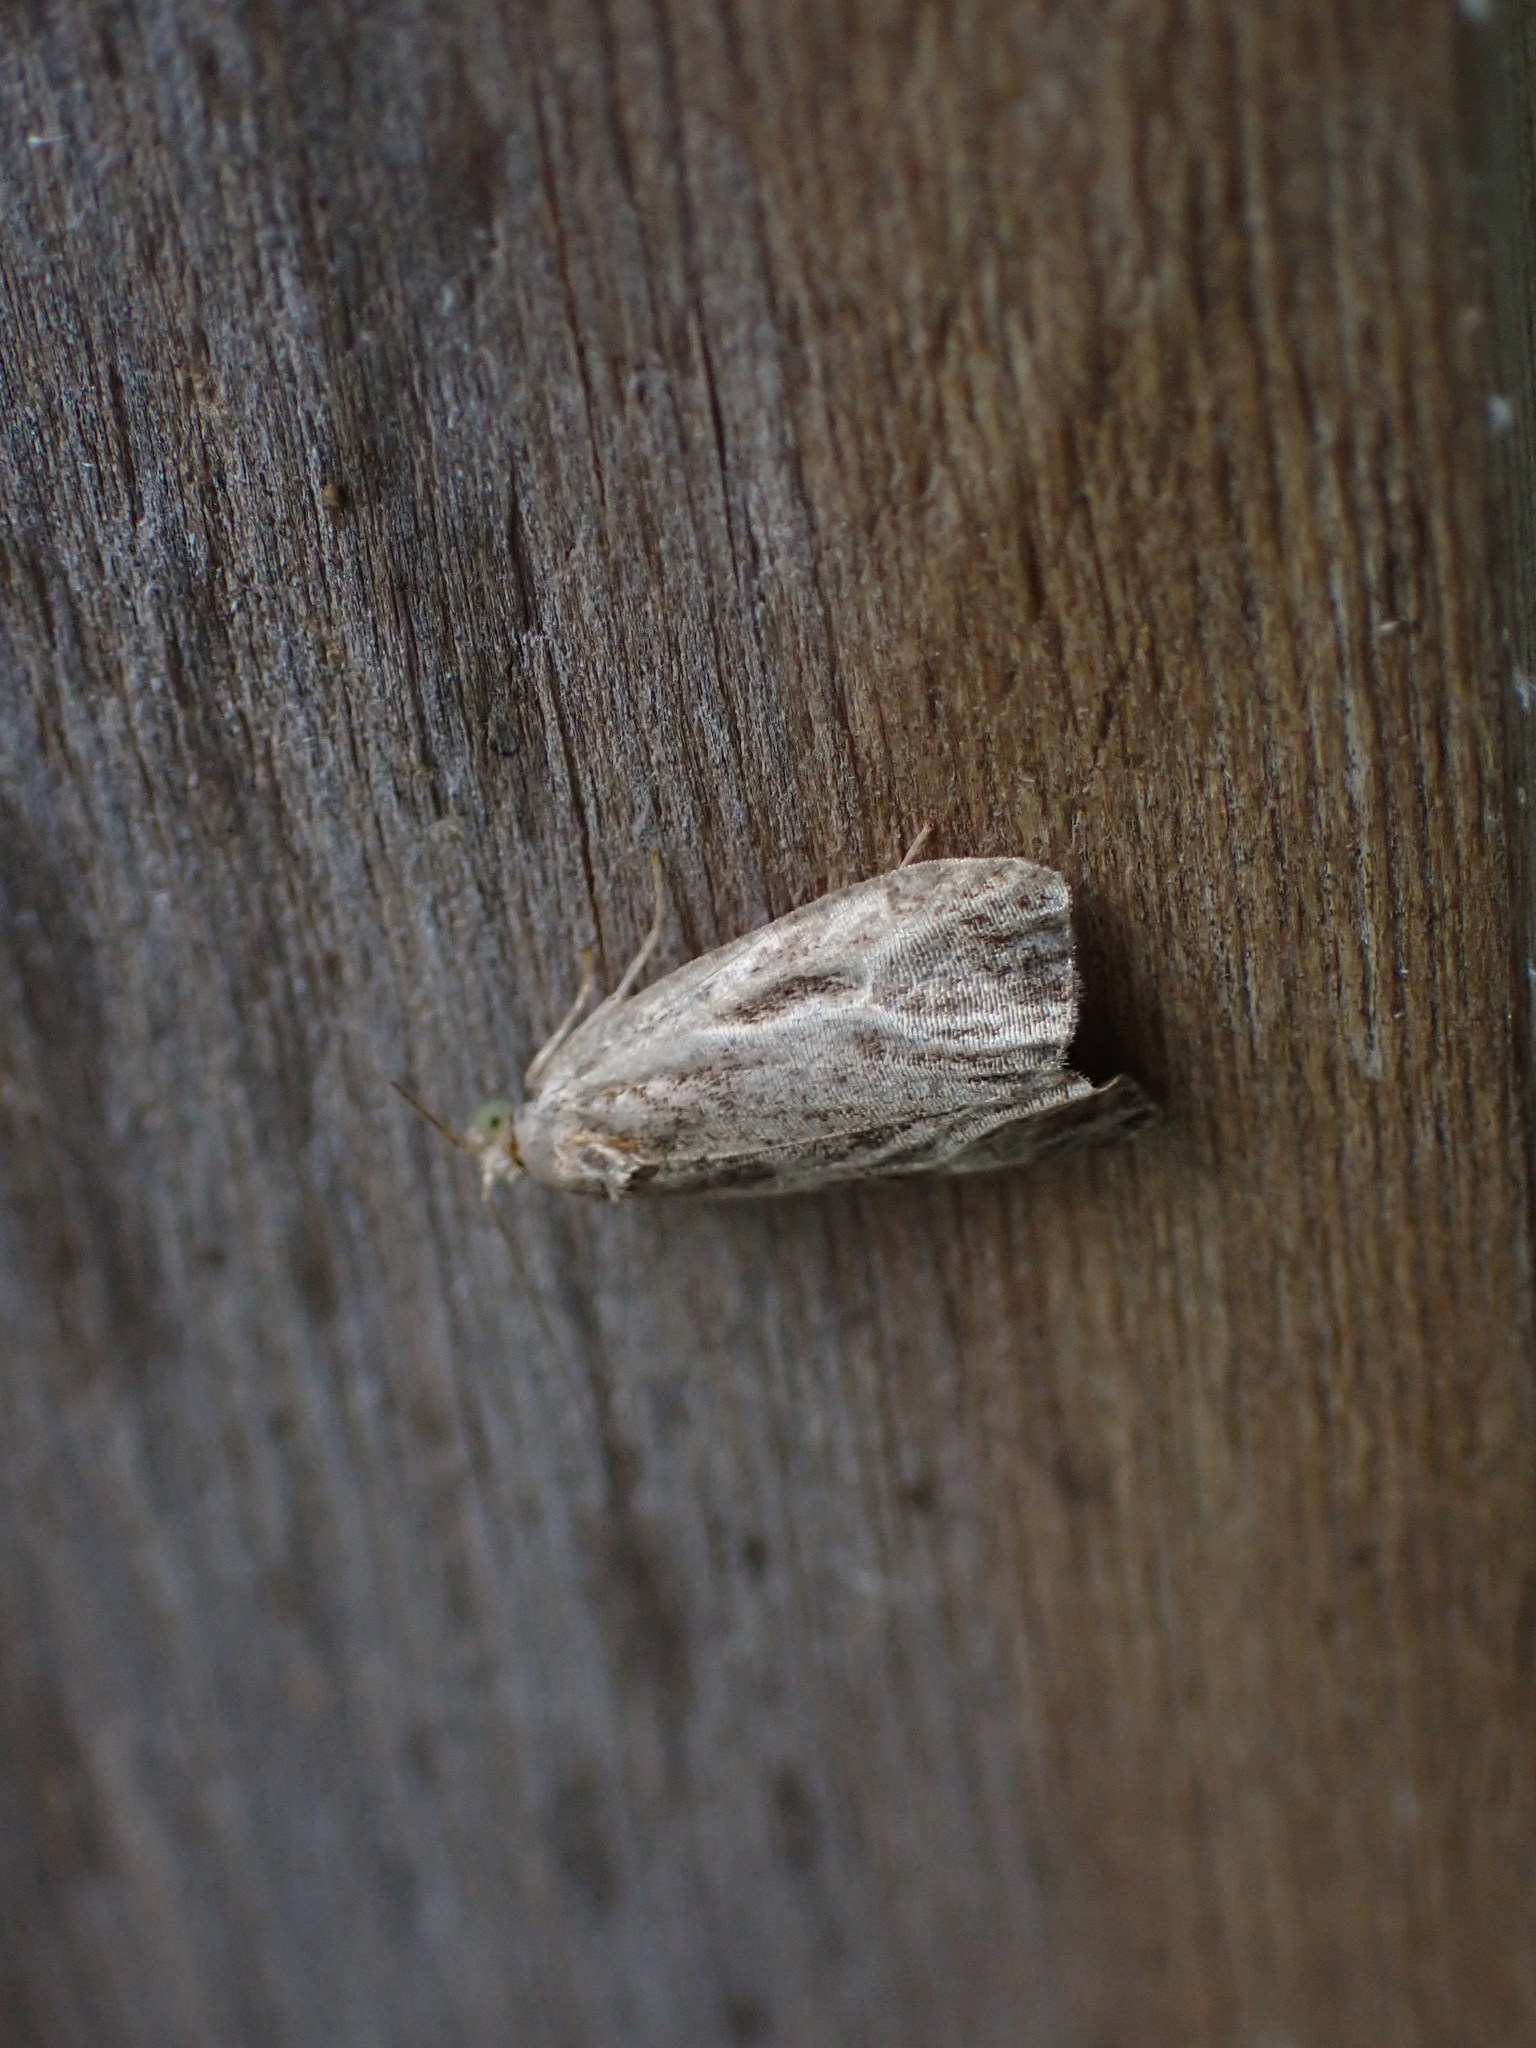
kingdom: Animalia
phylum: Arthropoda
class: Insecta
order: Lepidoptera
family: Tortricidae
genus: Olethreutes
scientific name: Olethreutes quadrifidum
